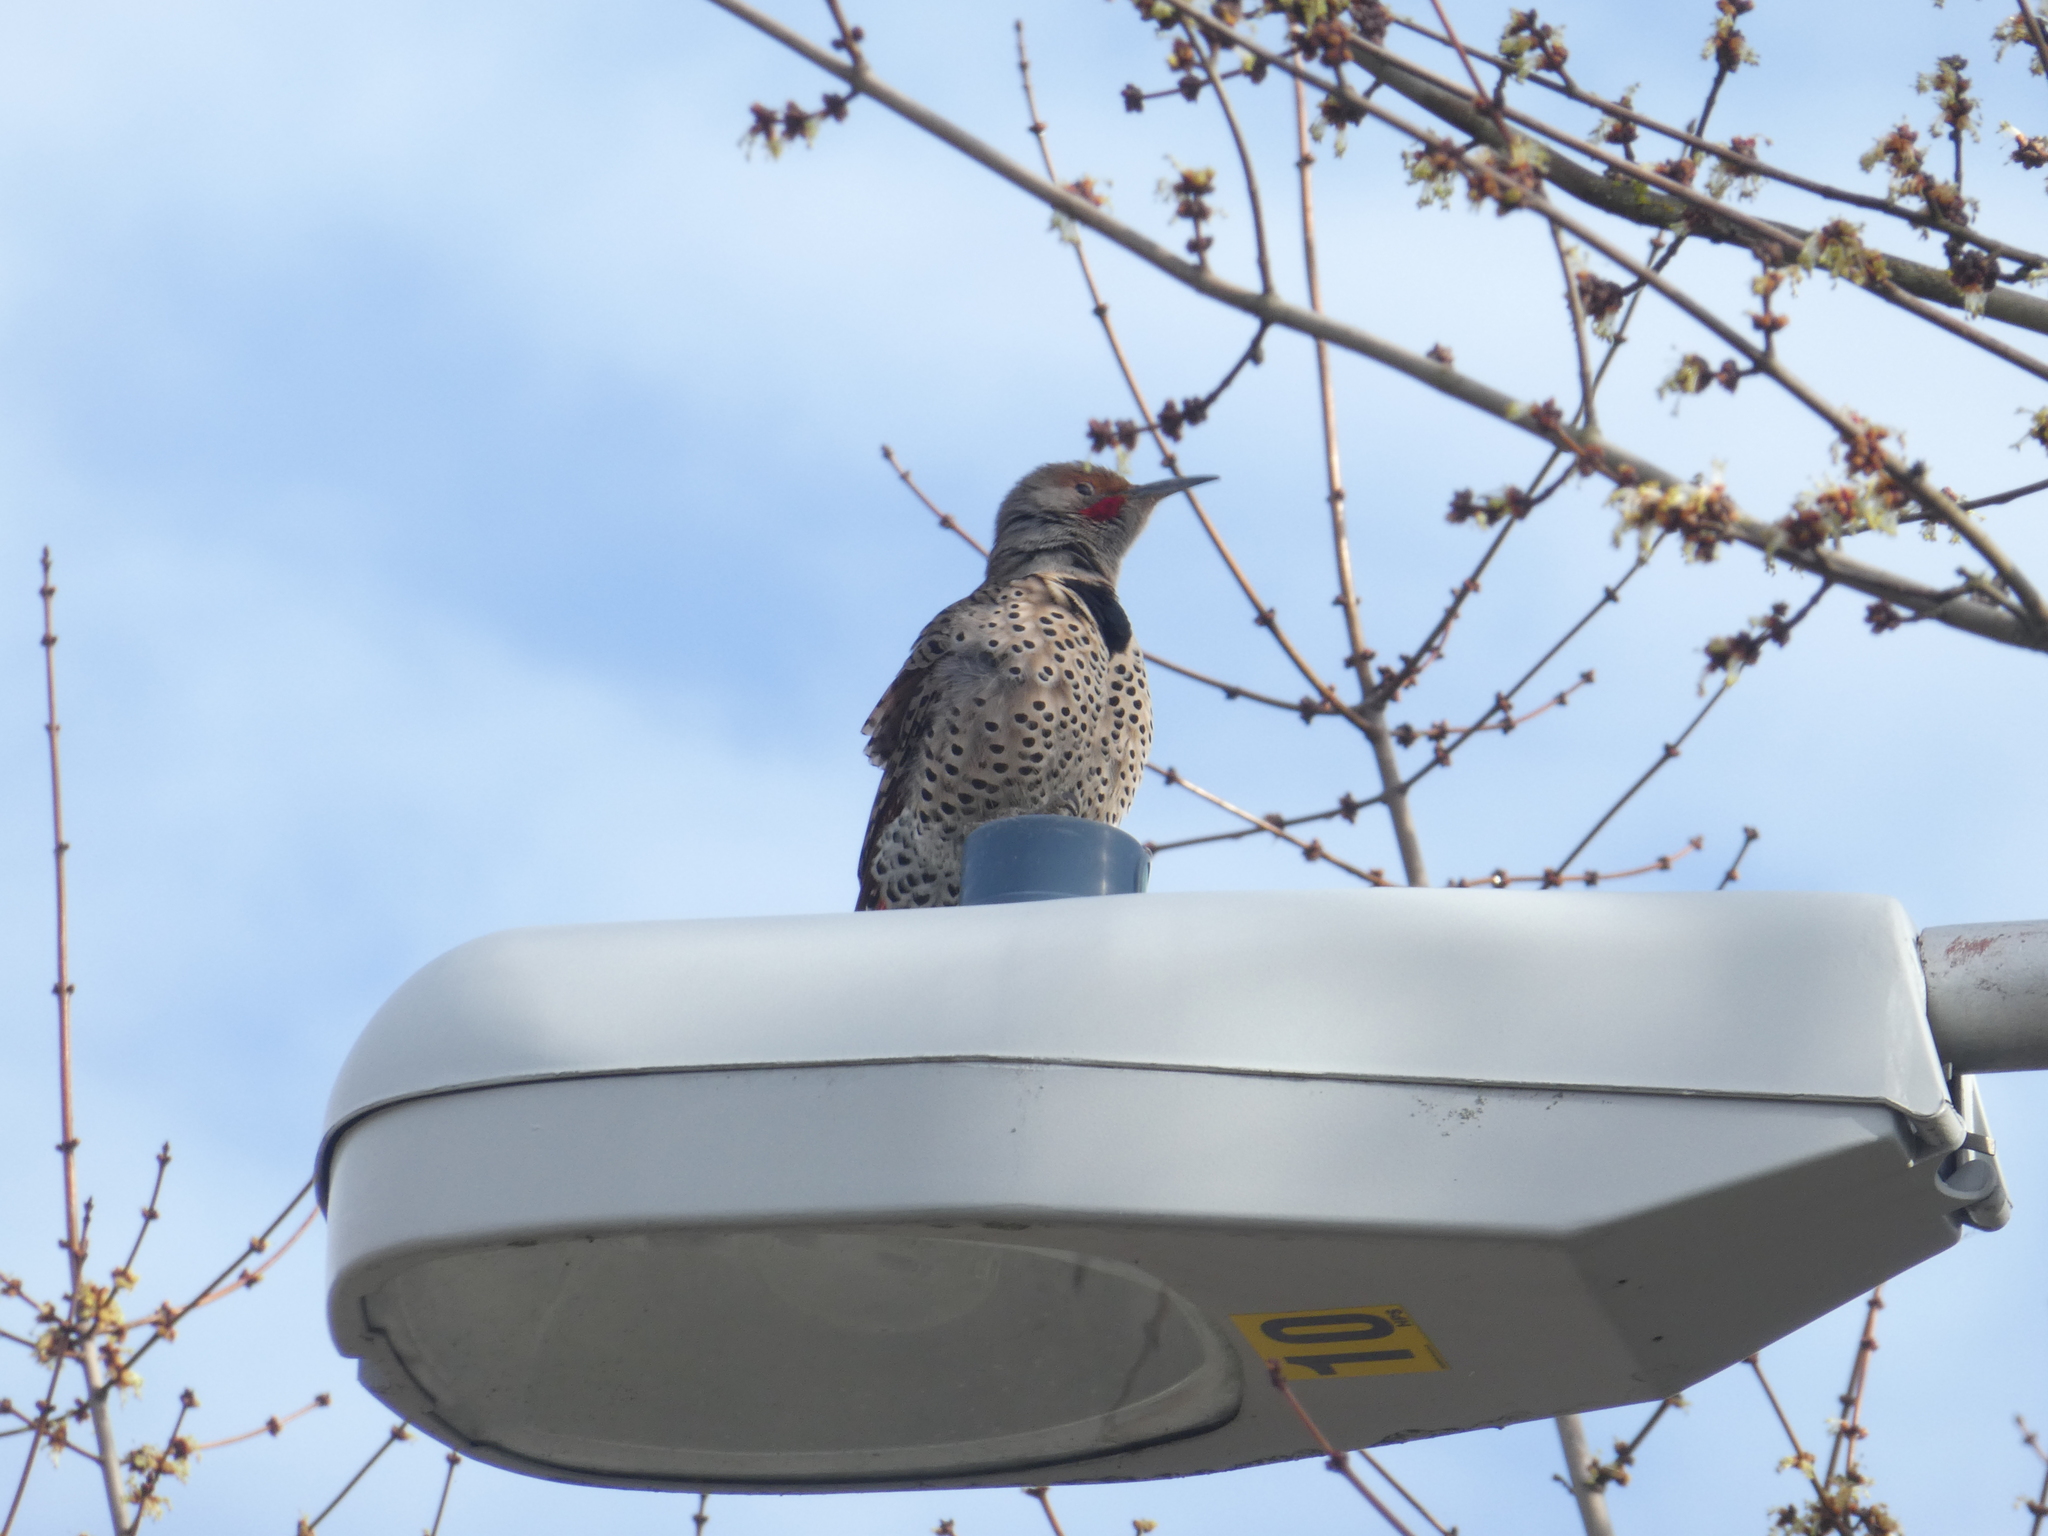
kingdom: Animalia
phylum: Chordata
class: Aves
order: Piciformes
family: Picidae
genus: Colaptes
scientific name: Colaptes auratus
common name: Northern flicker
